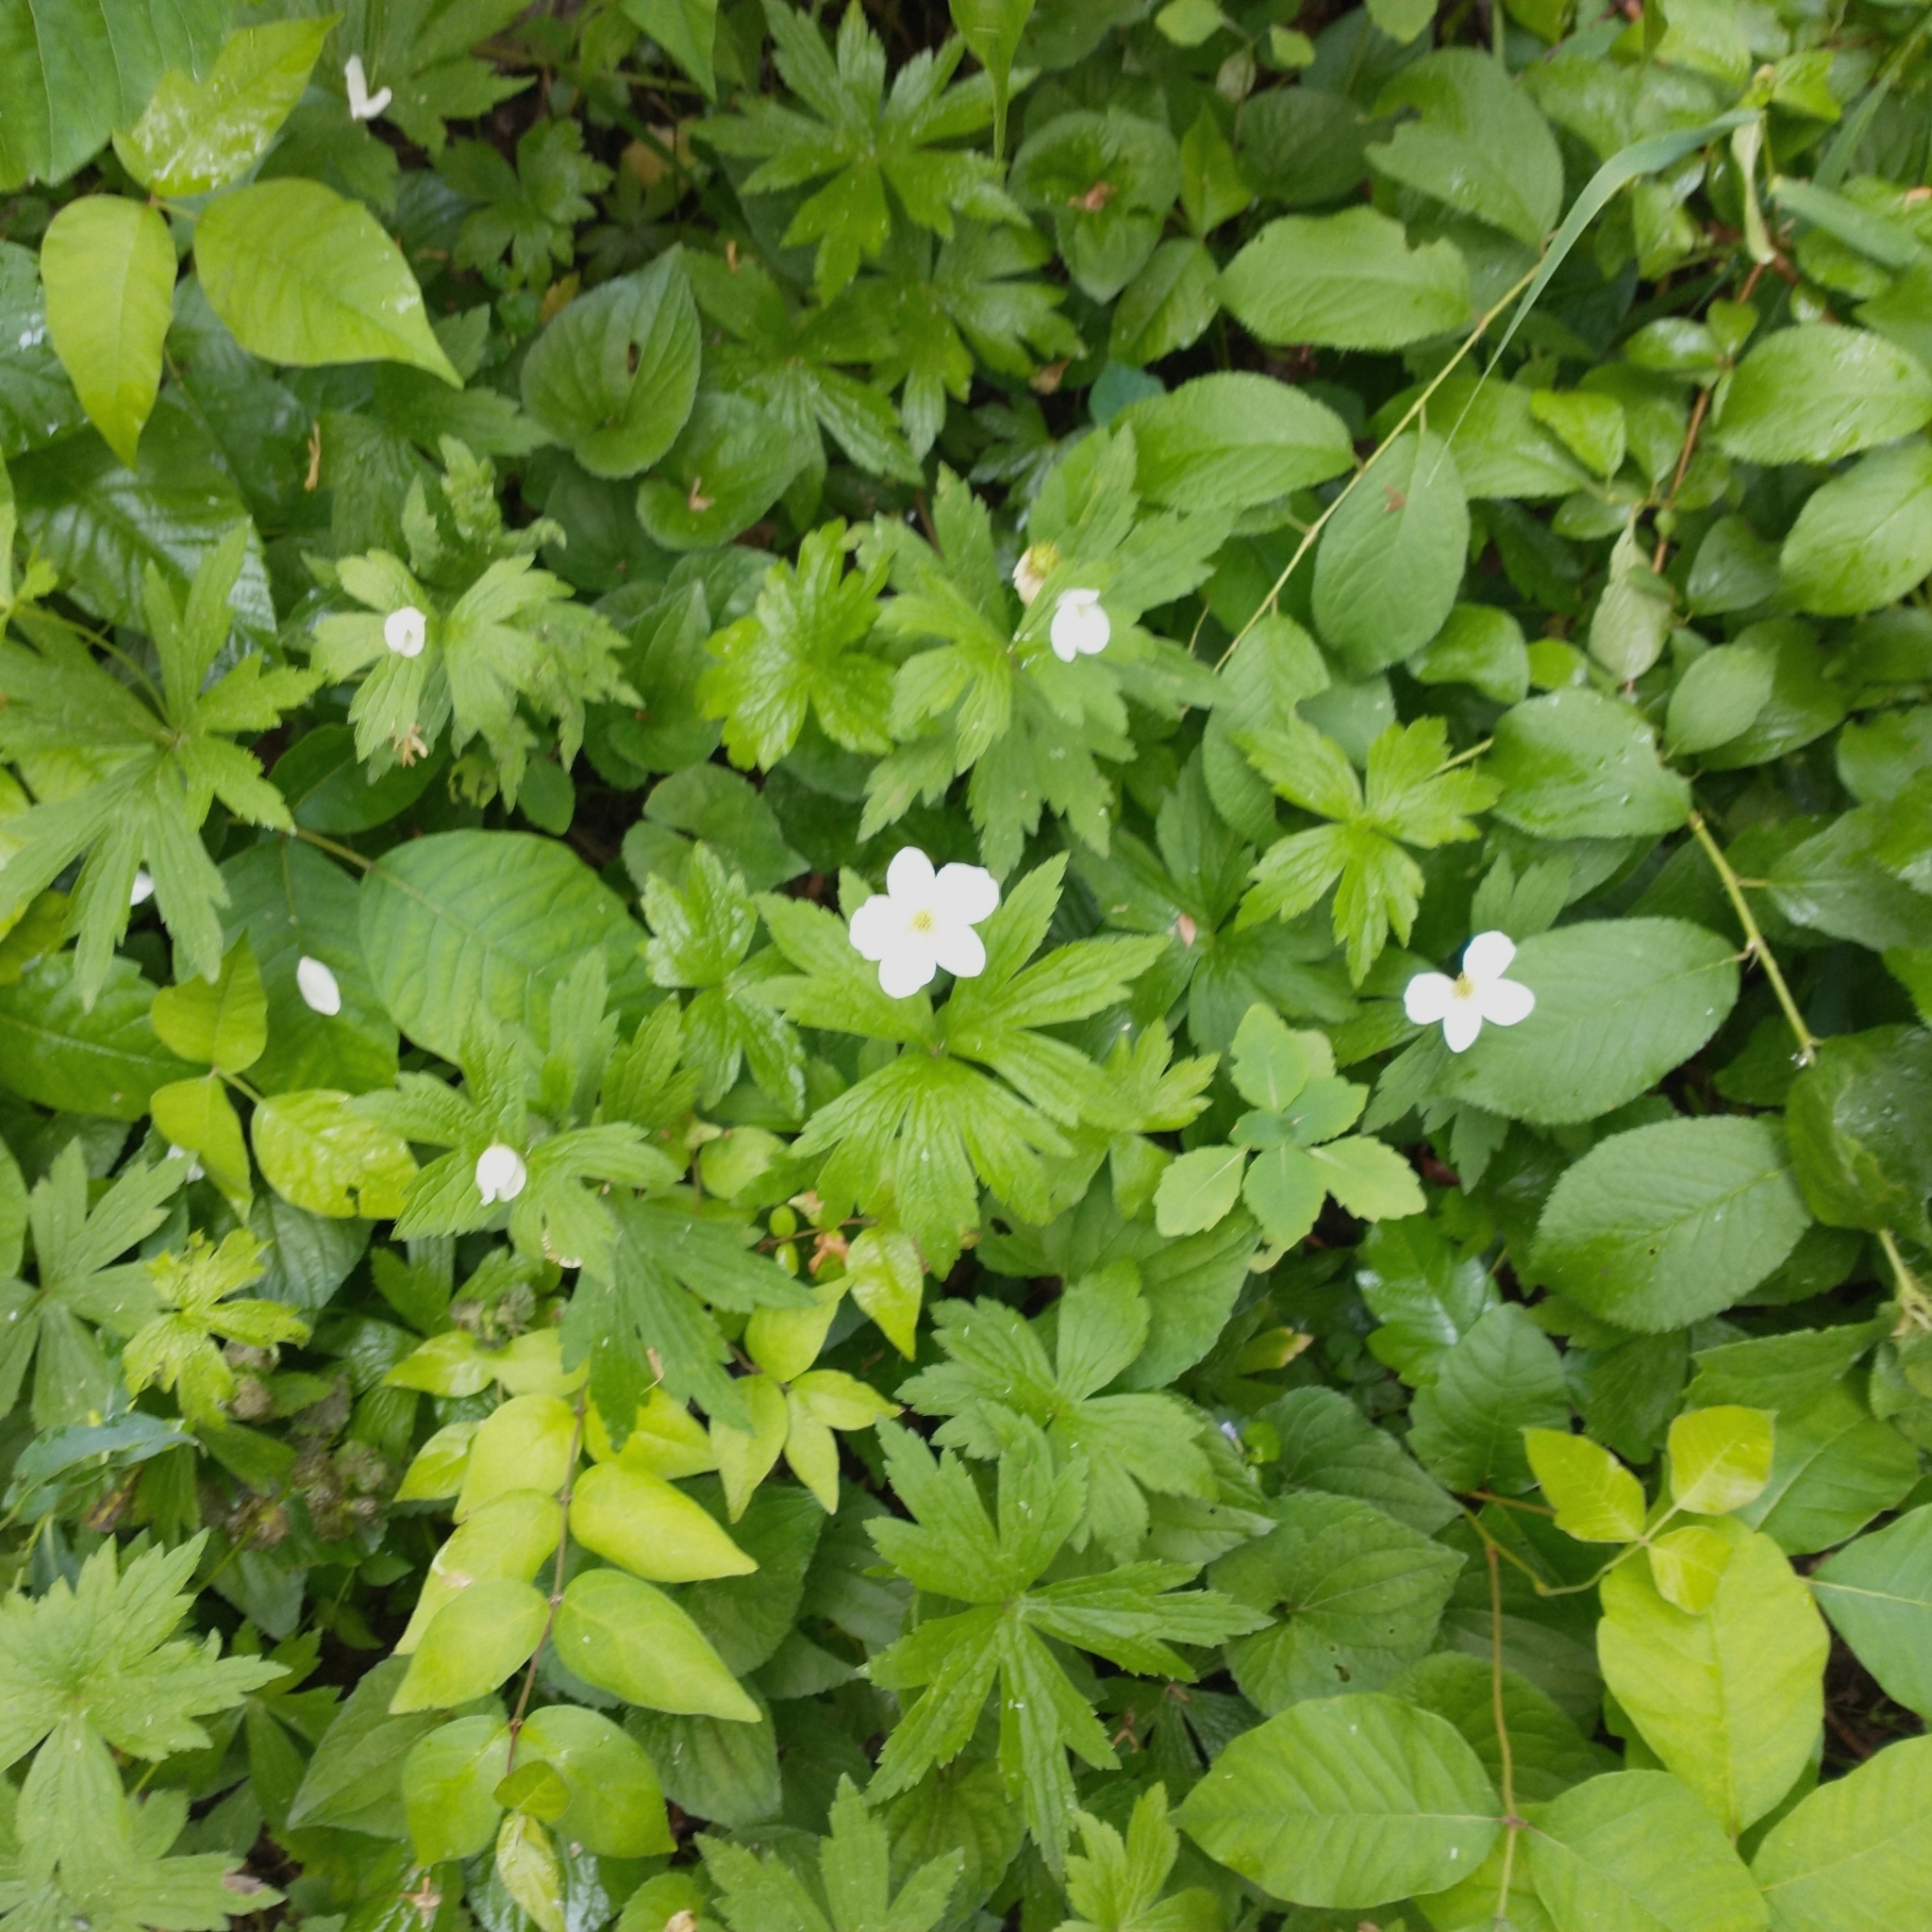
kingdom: Plantae
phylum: Tracheophyta
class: Magnoliopsida
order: Ranunculales
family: Ranunculaceae
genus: Anemonastrum
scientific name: Anemonastrum canadense
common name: Canada anemone
